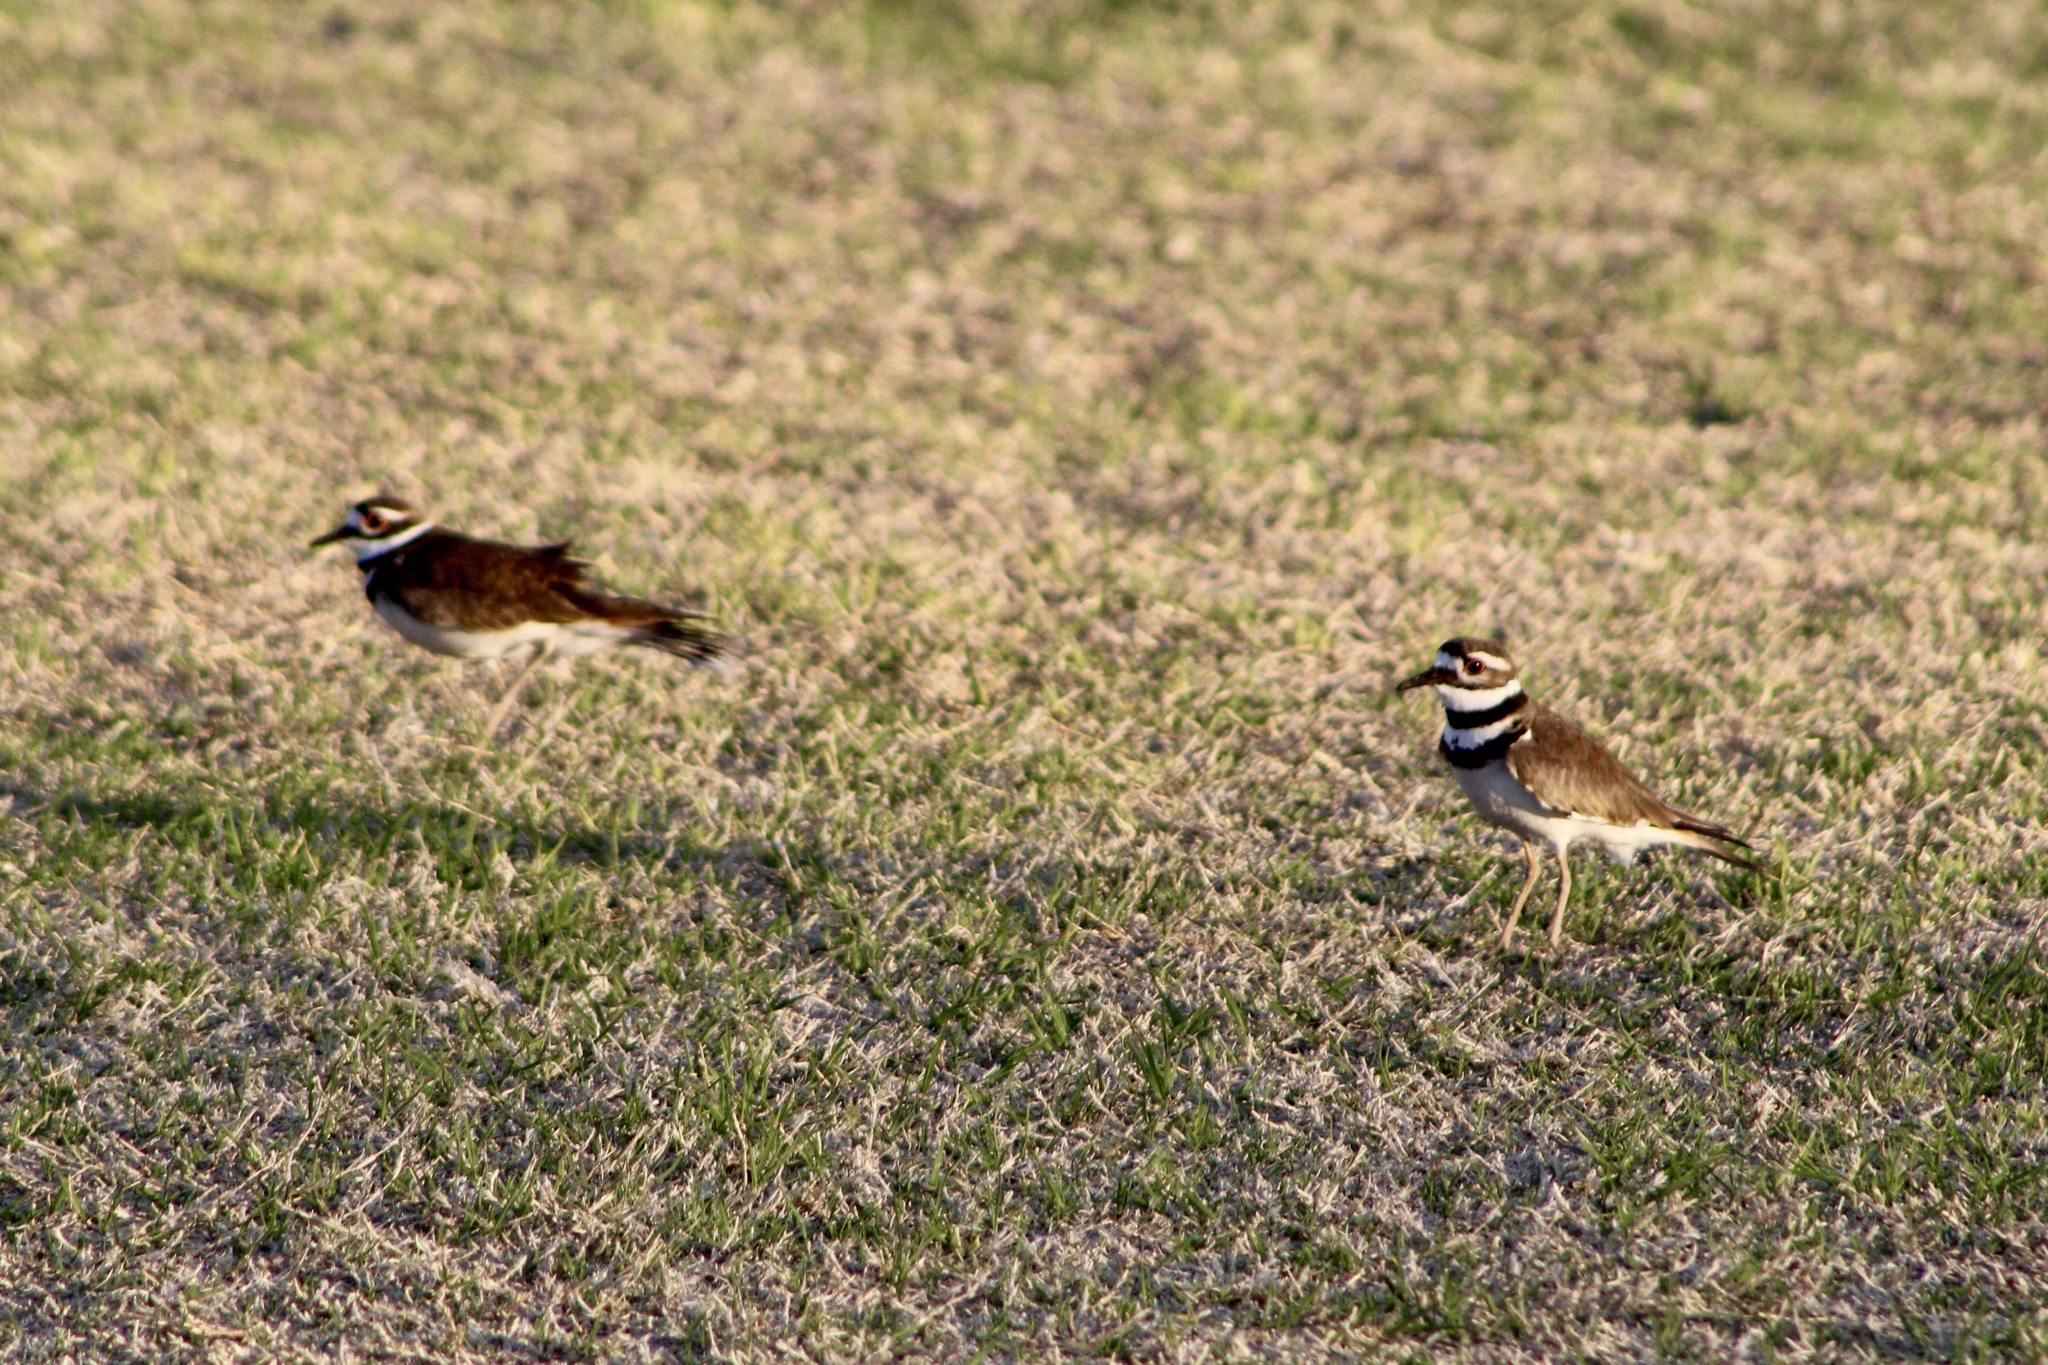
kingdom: Animalia
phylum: Chordata
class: Aves
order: Charadriiformes
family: Charadriidae
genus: Charadrius
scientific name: Charadrius vociferus
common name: Killdeer
